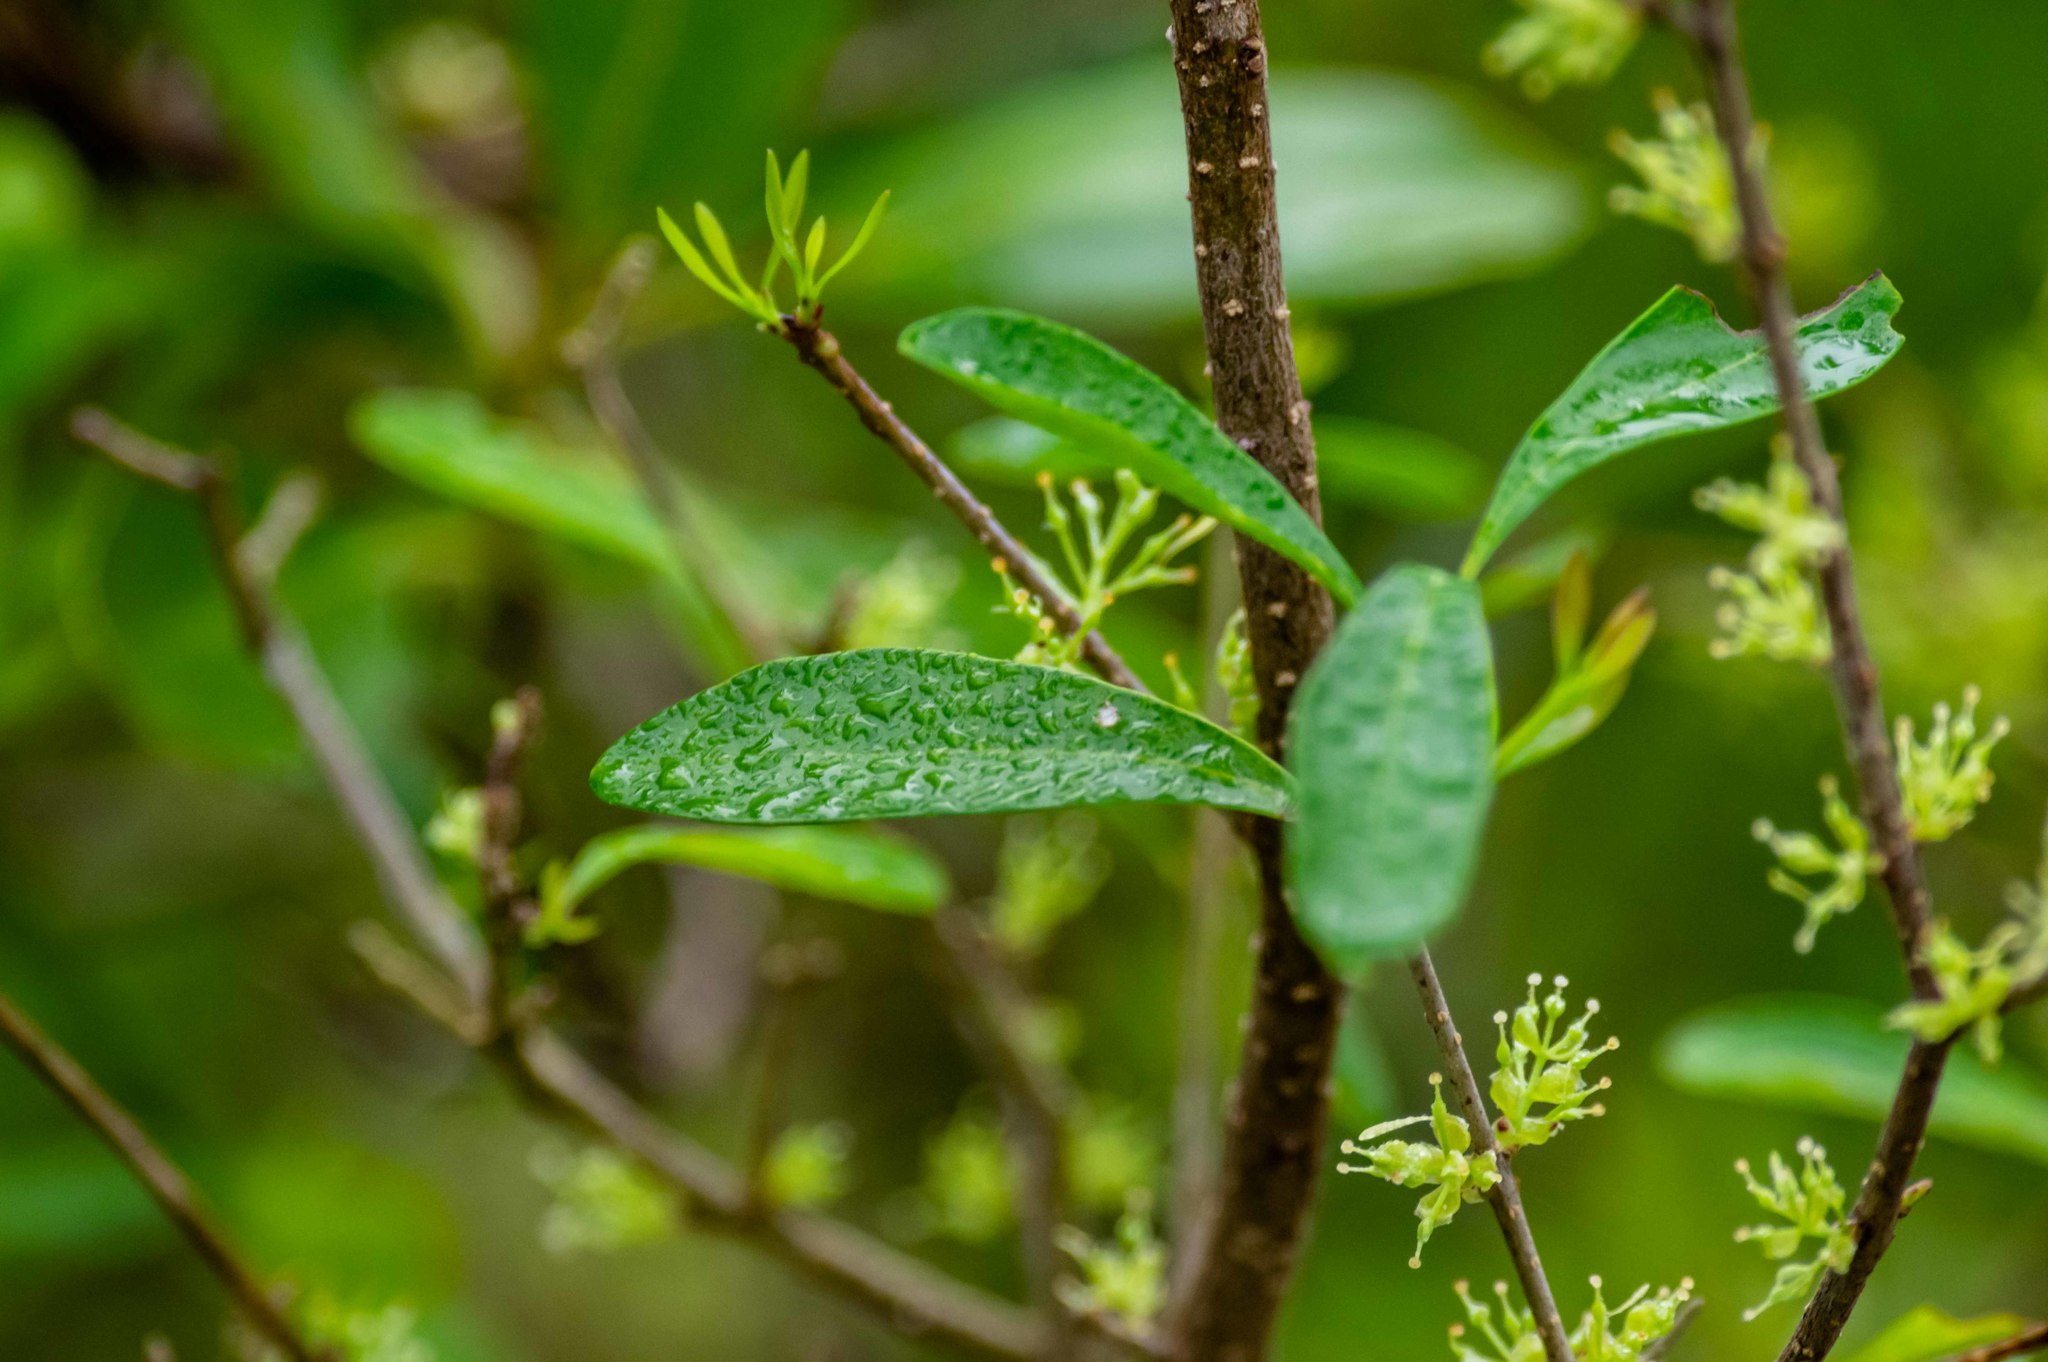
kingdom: Plantae
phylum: Tracheophyta
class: Magnoliopsida
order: Lamiales
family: Oleaceae
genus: Forestiera
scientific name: Forestiera segregata
